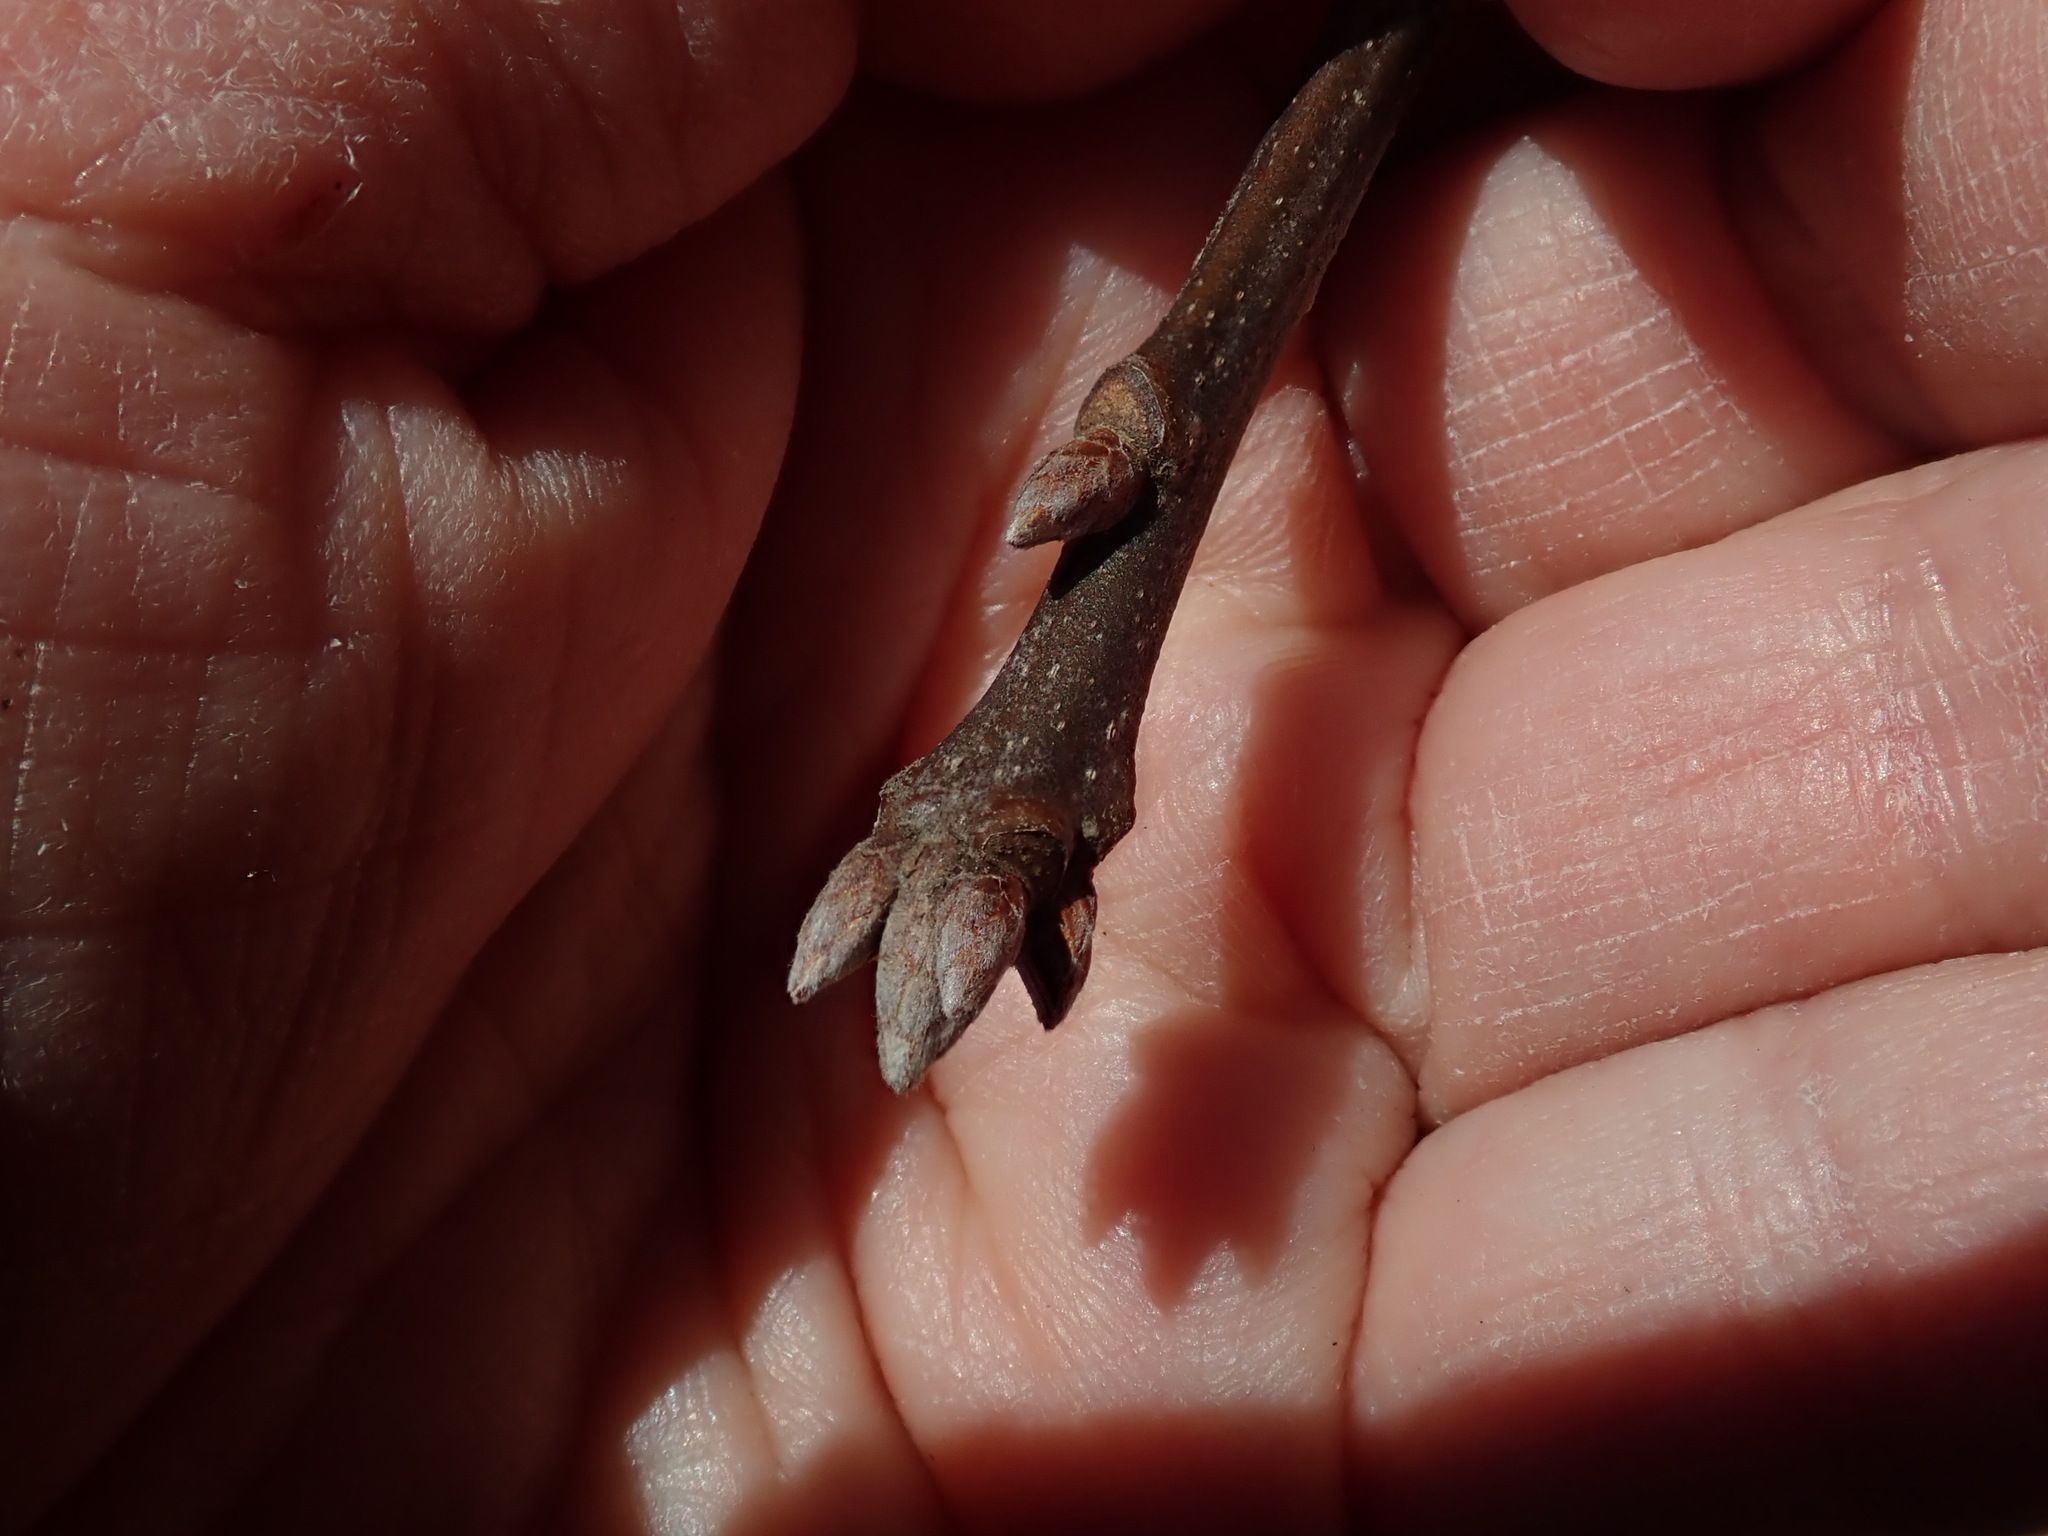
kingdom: Plantae
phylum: Tracheophyta
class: Magnoliopsida
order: Fagales
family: Fagaceae
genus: Quercus
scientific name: Quercus velutina
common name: Black oak
